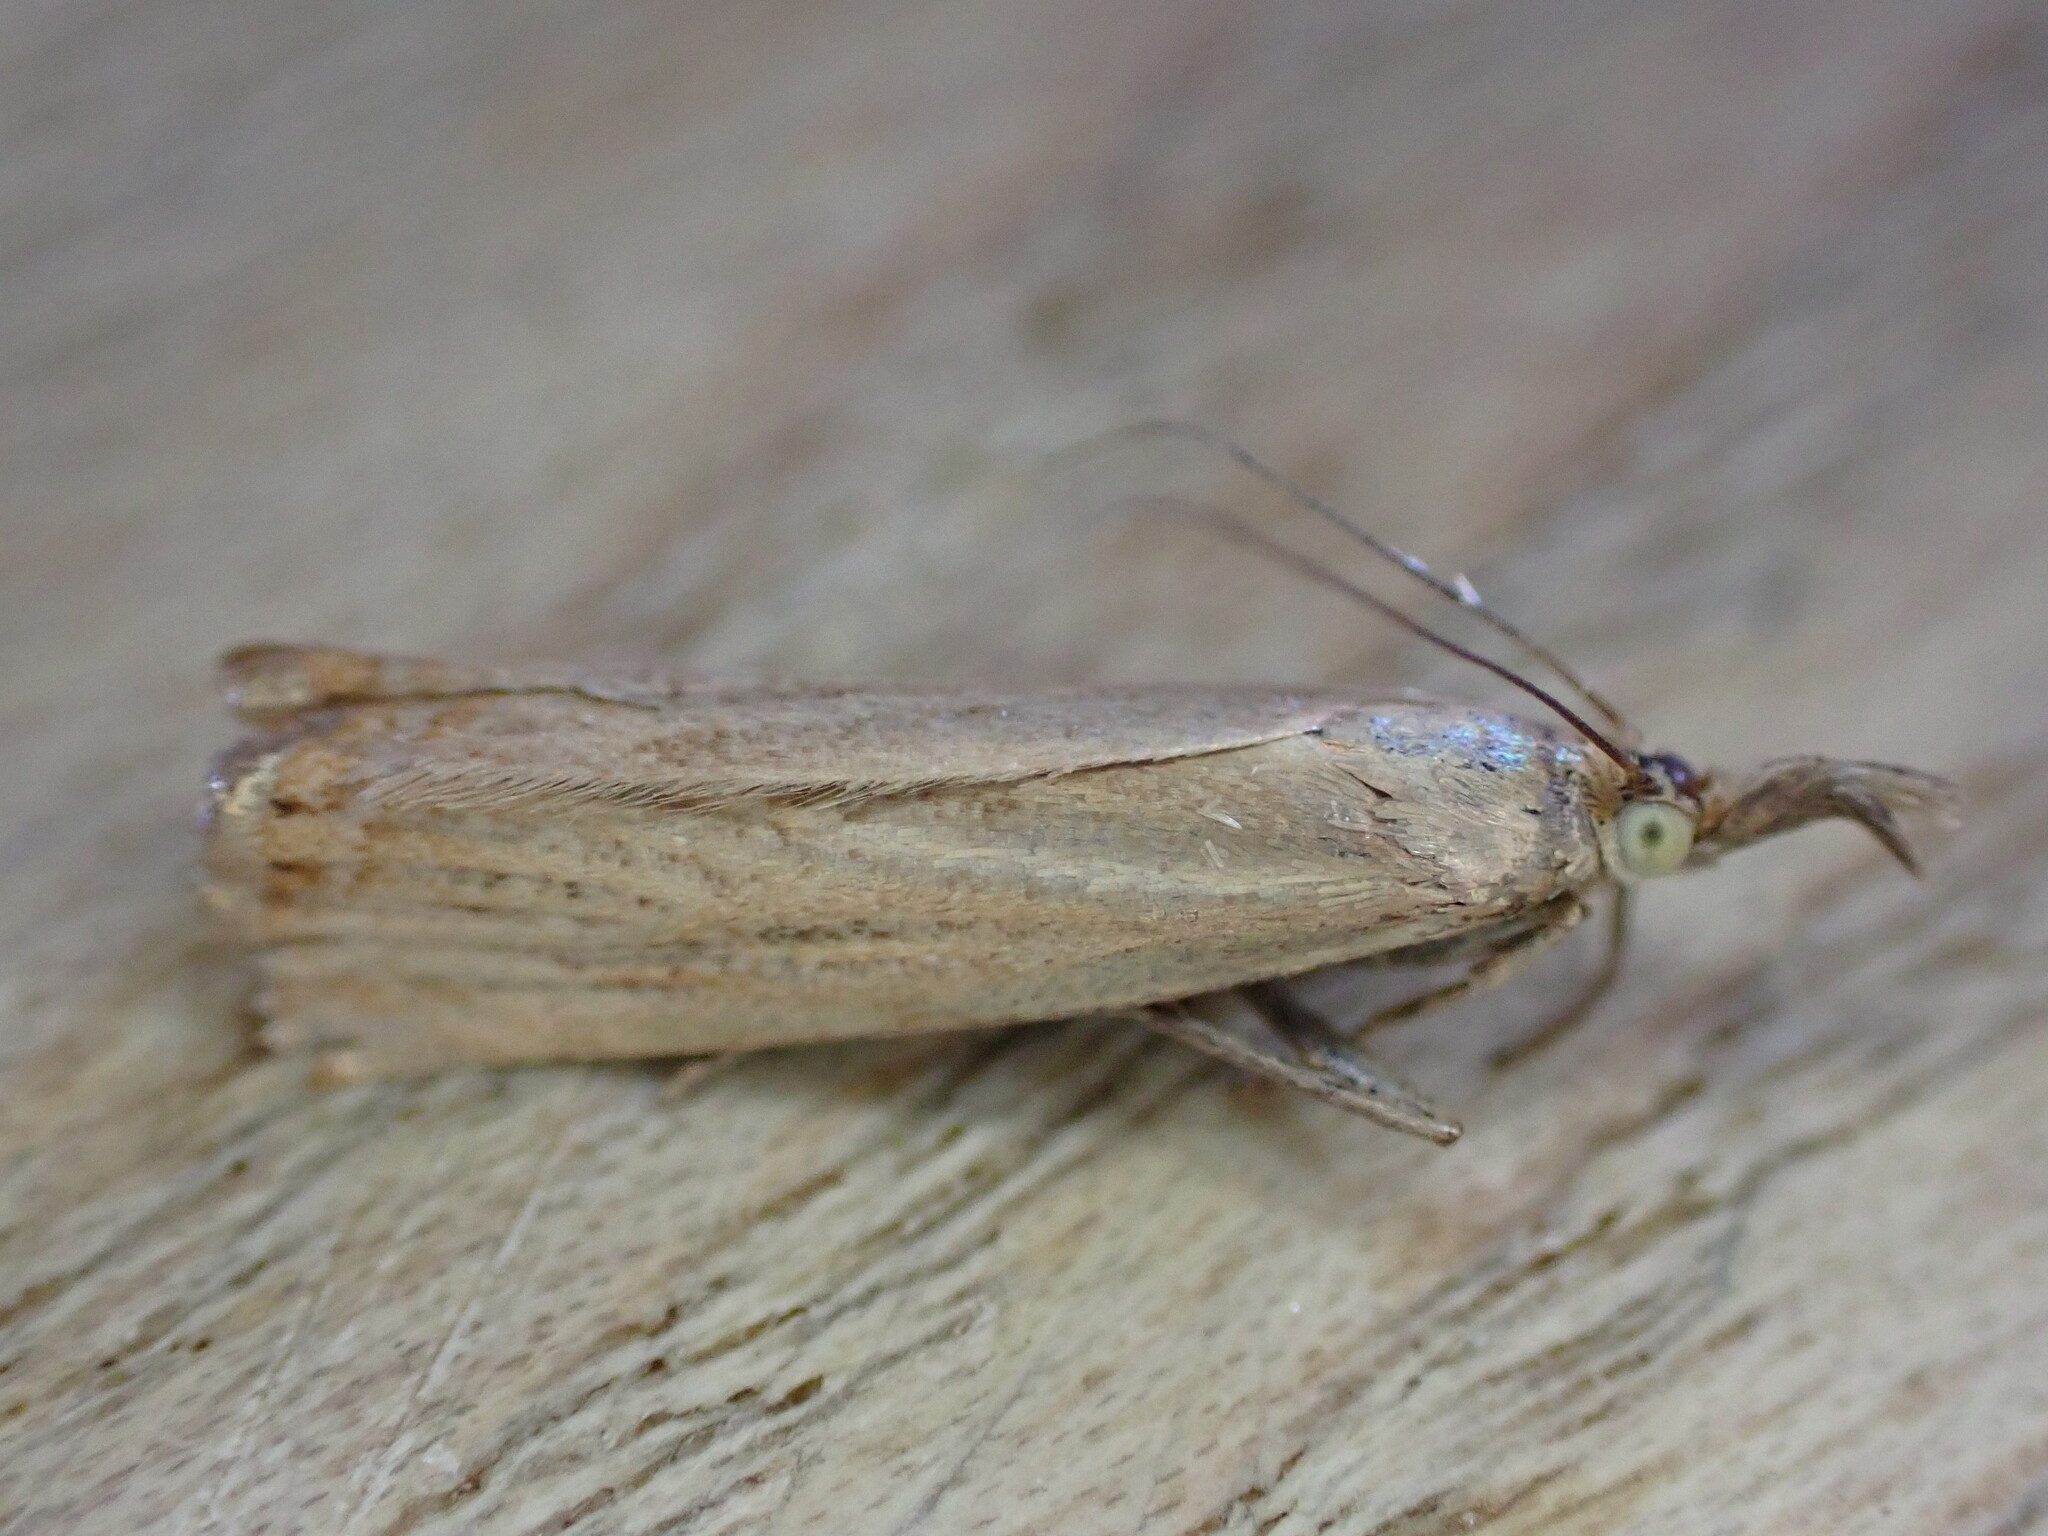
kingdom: Animalia
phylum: Arthropoda
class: Insecta
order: Lepidoptera
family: Crambidae
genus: Chrysoteuchia
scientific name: Chrysoteuchia culmella
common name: Garden grass-veneer
